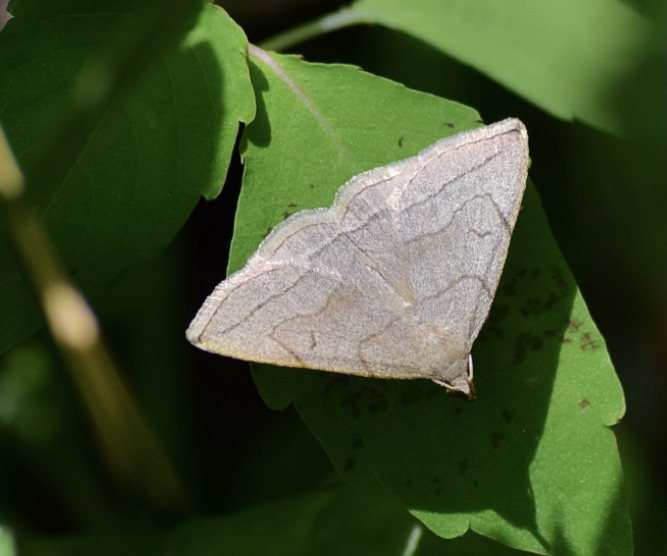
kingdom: Animalia
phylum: Arthropoda
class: Insecta
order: Lepidoptera
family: Erebidae
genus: Zanclognatha
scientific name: Zanclognatha pedipilalis
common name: Grayish fan-foot
